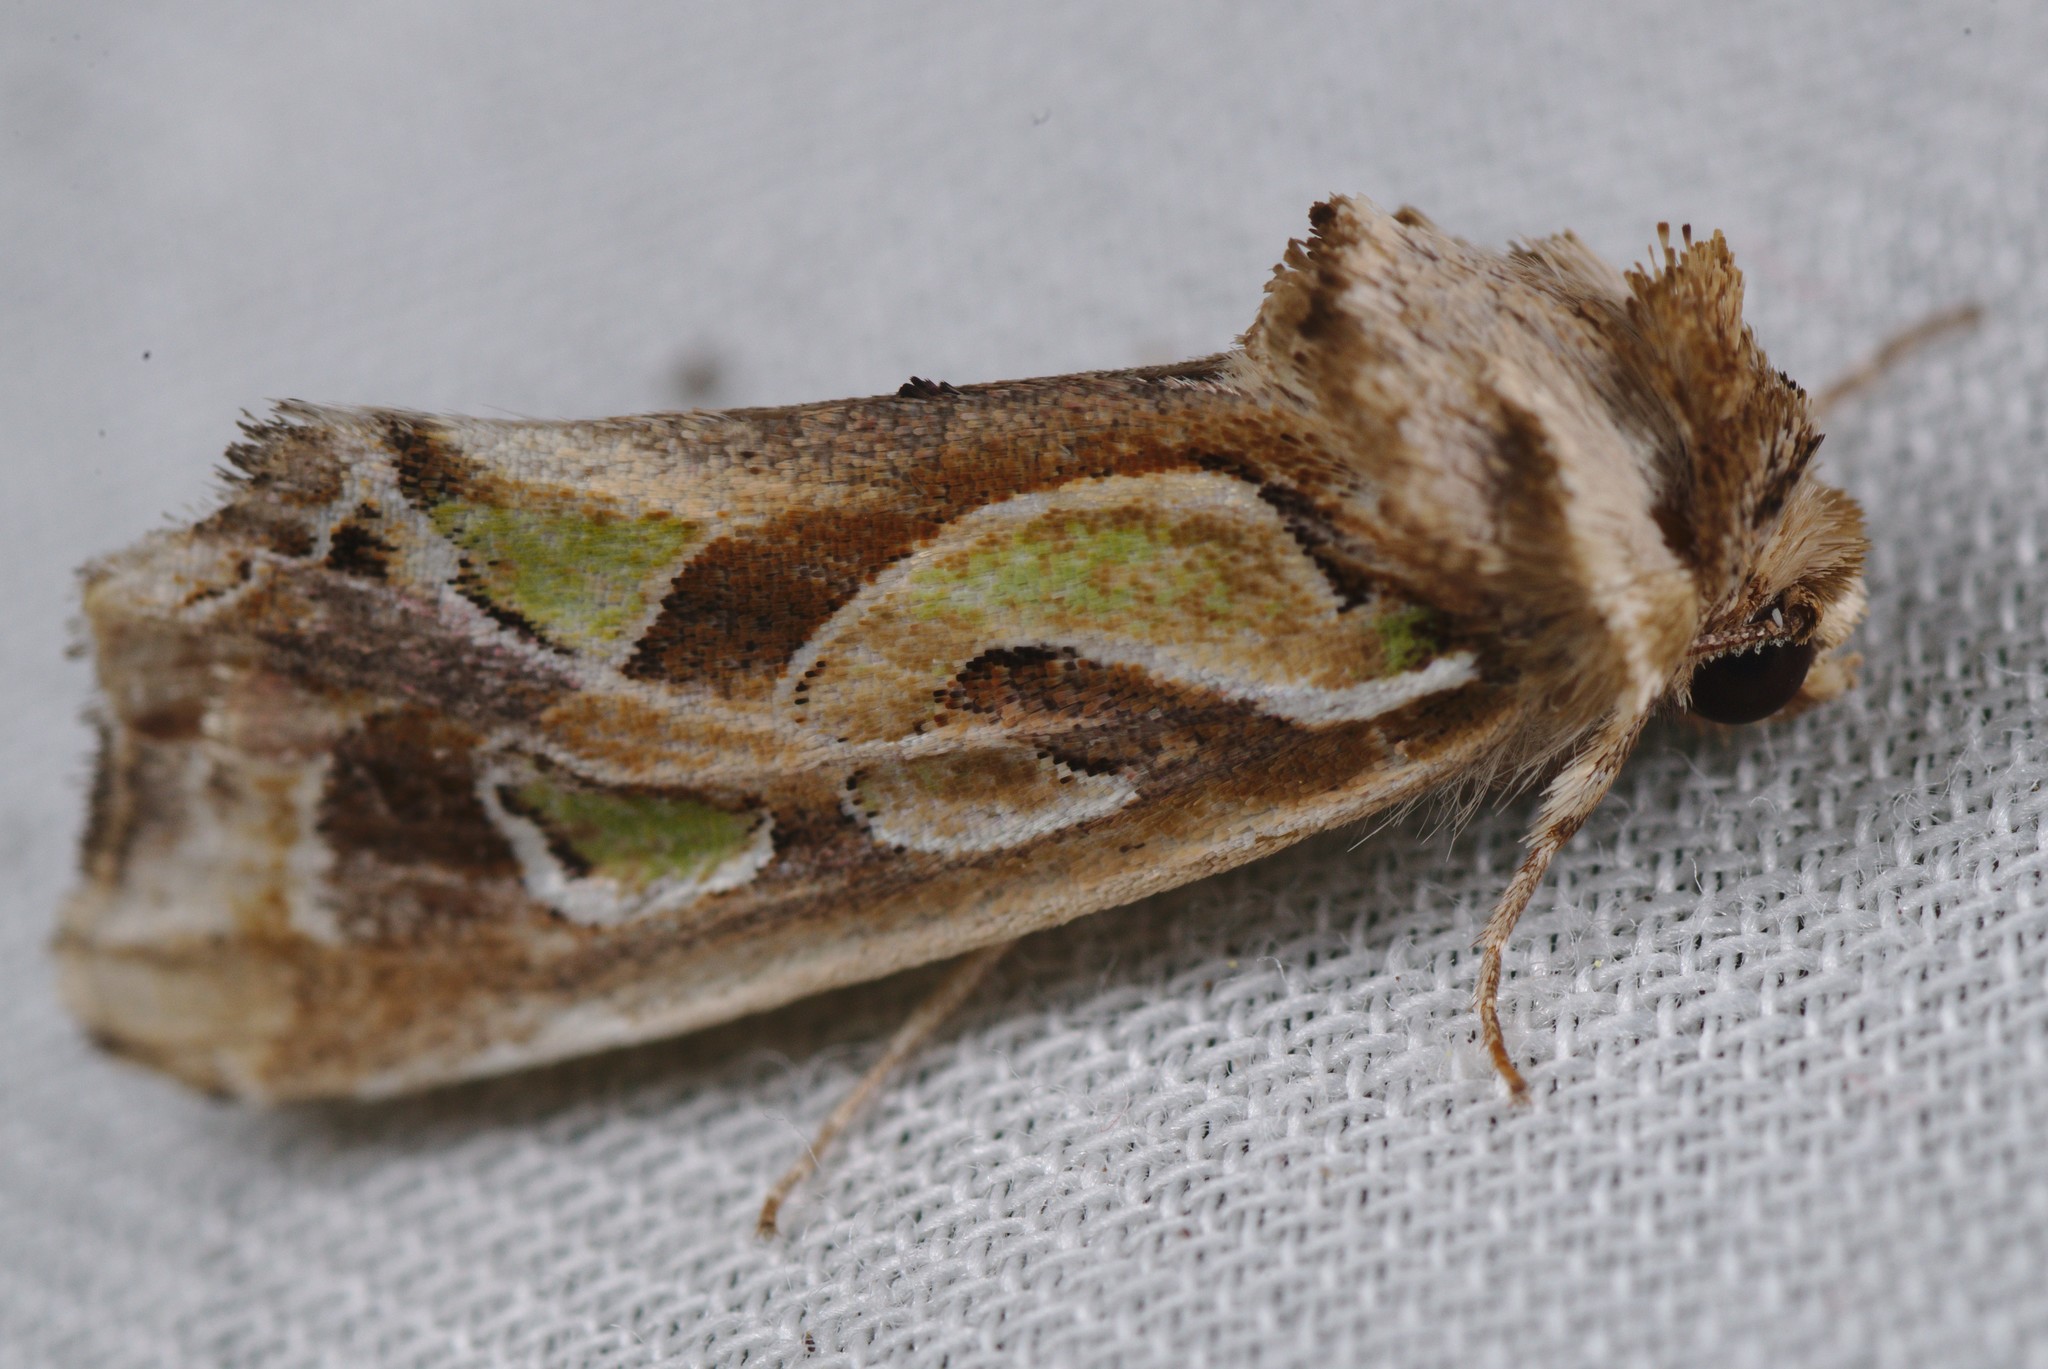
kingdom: Animalia
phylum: Arthropoda
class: Insecta
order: Lepidoptera
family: Noctuidae
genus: Cosmodes
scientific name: Cosmodes elegans
